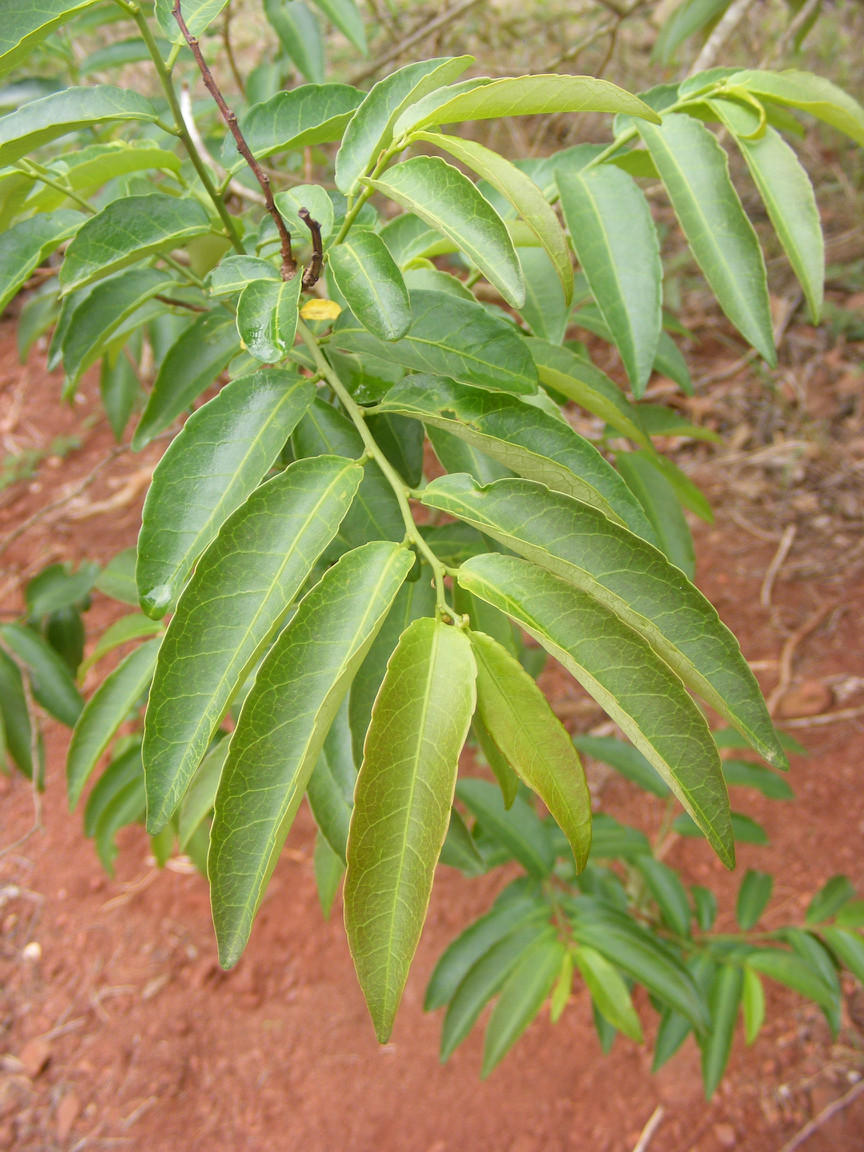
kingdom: Plantae
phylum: Tracheophyta
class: Magnoliopsida
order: Malpighiales
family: Euphorbiaceae
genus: Sclerocroton
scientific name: Sclerocroton integerrimus
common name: Duiker berry
